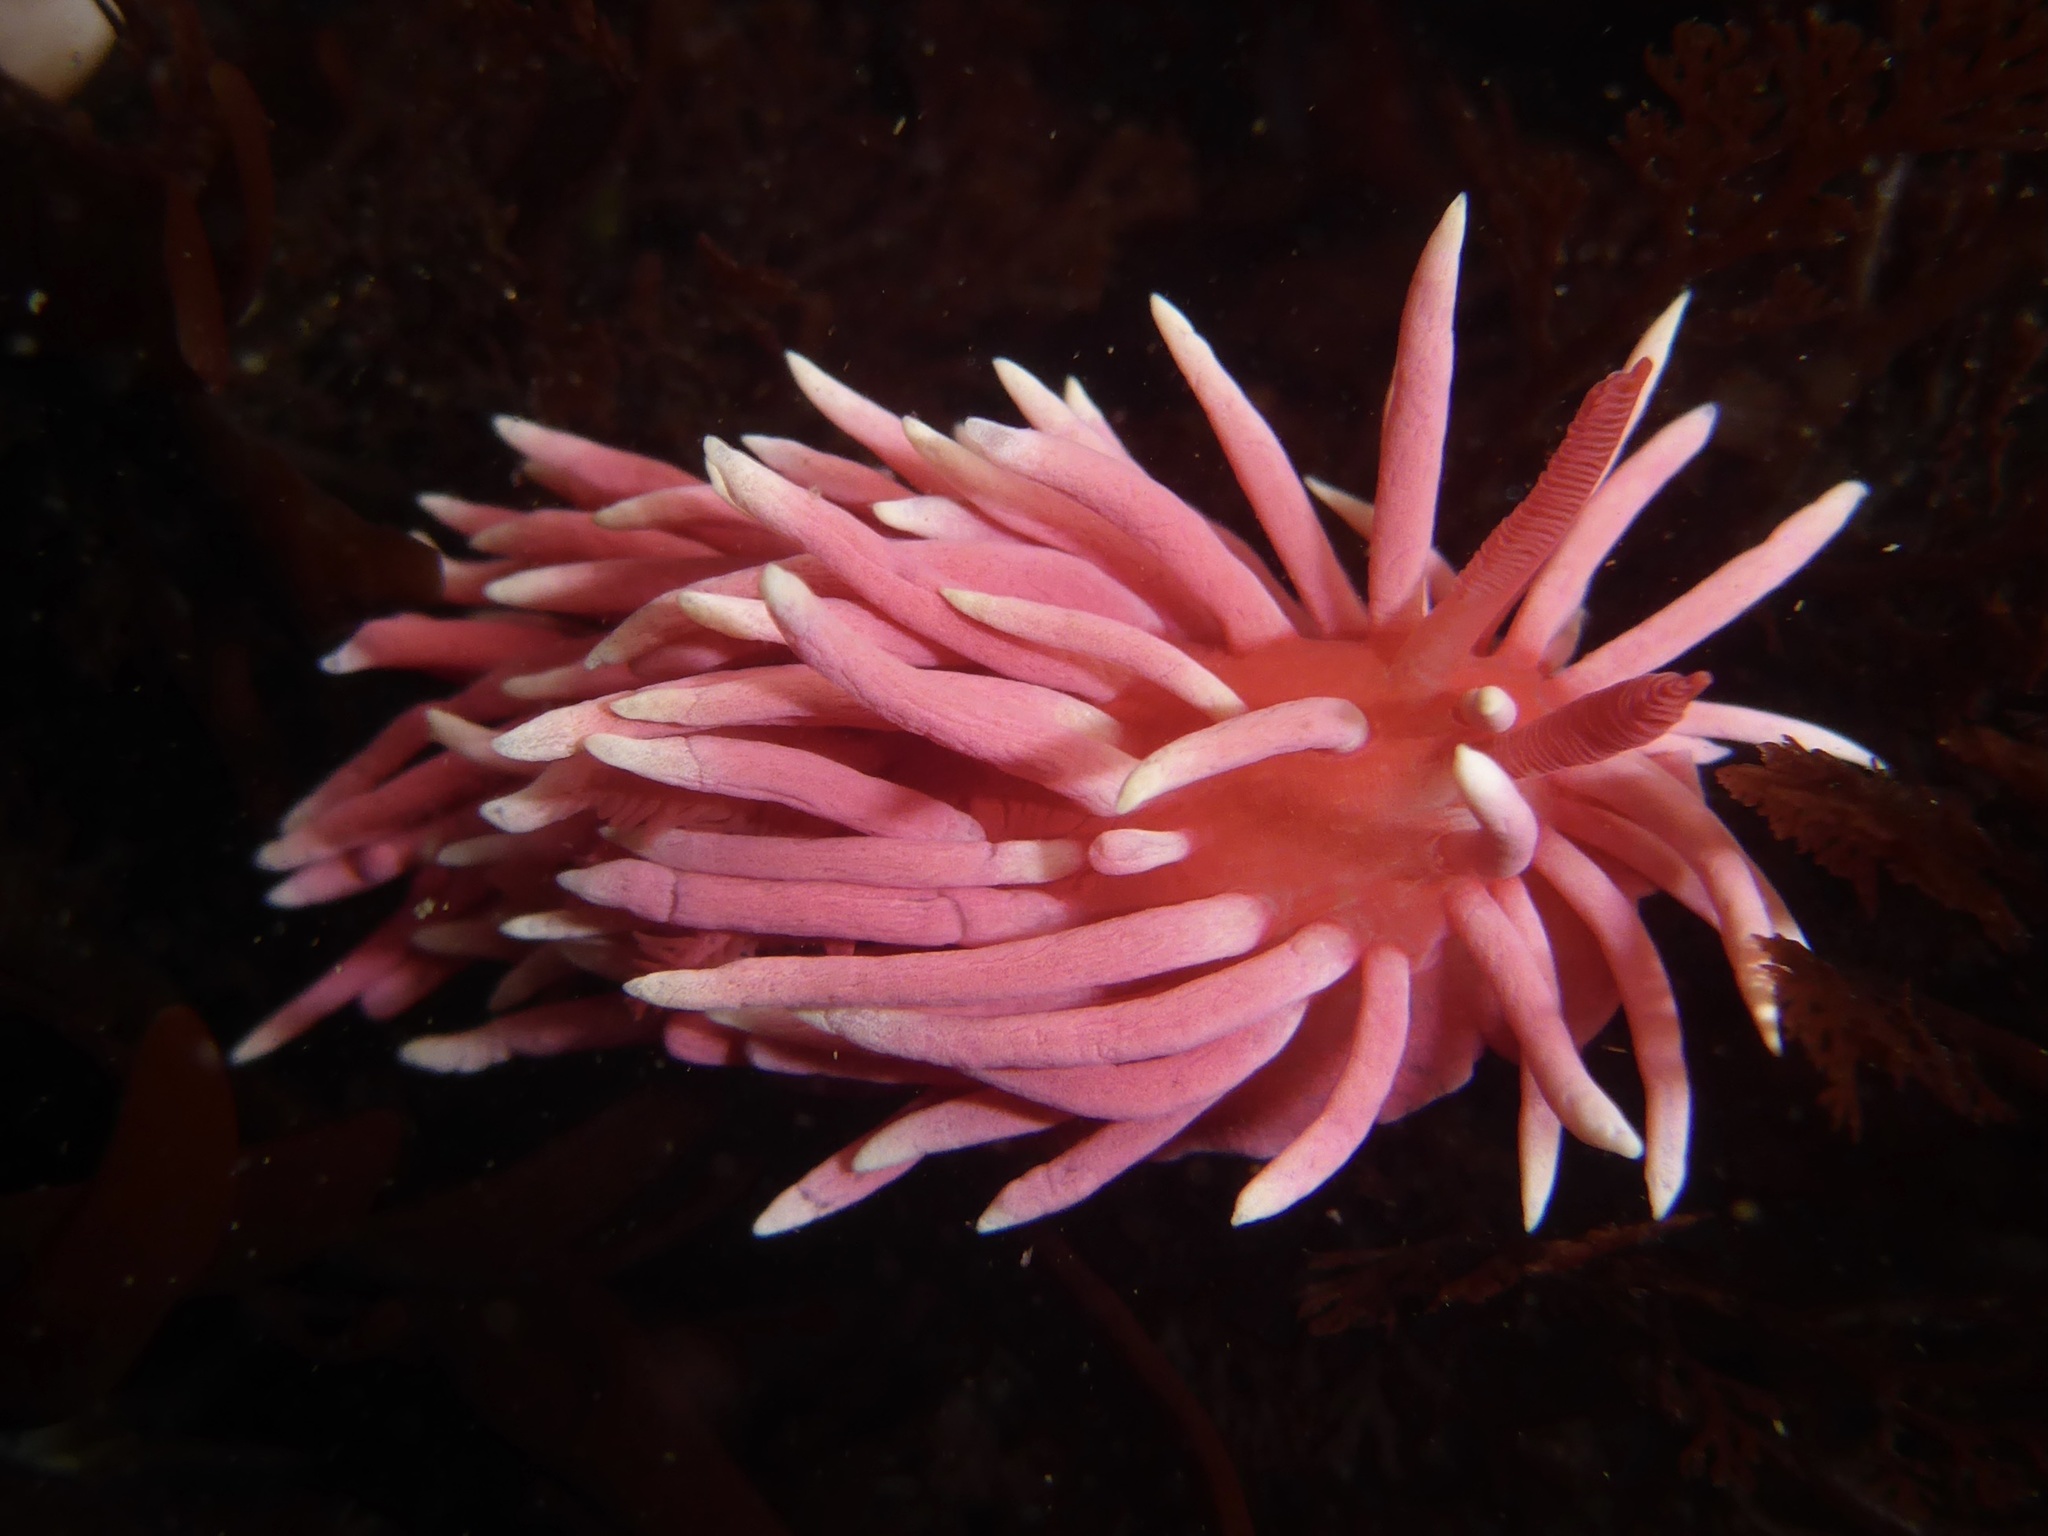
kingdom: Animalia
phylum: Mollusca
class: Gastropoda
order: Nudibranchia
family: Goniodorididae
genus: Okenia
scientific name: Okenia
